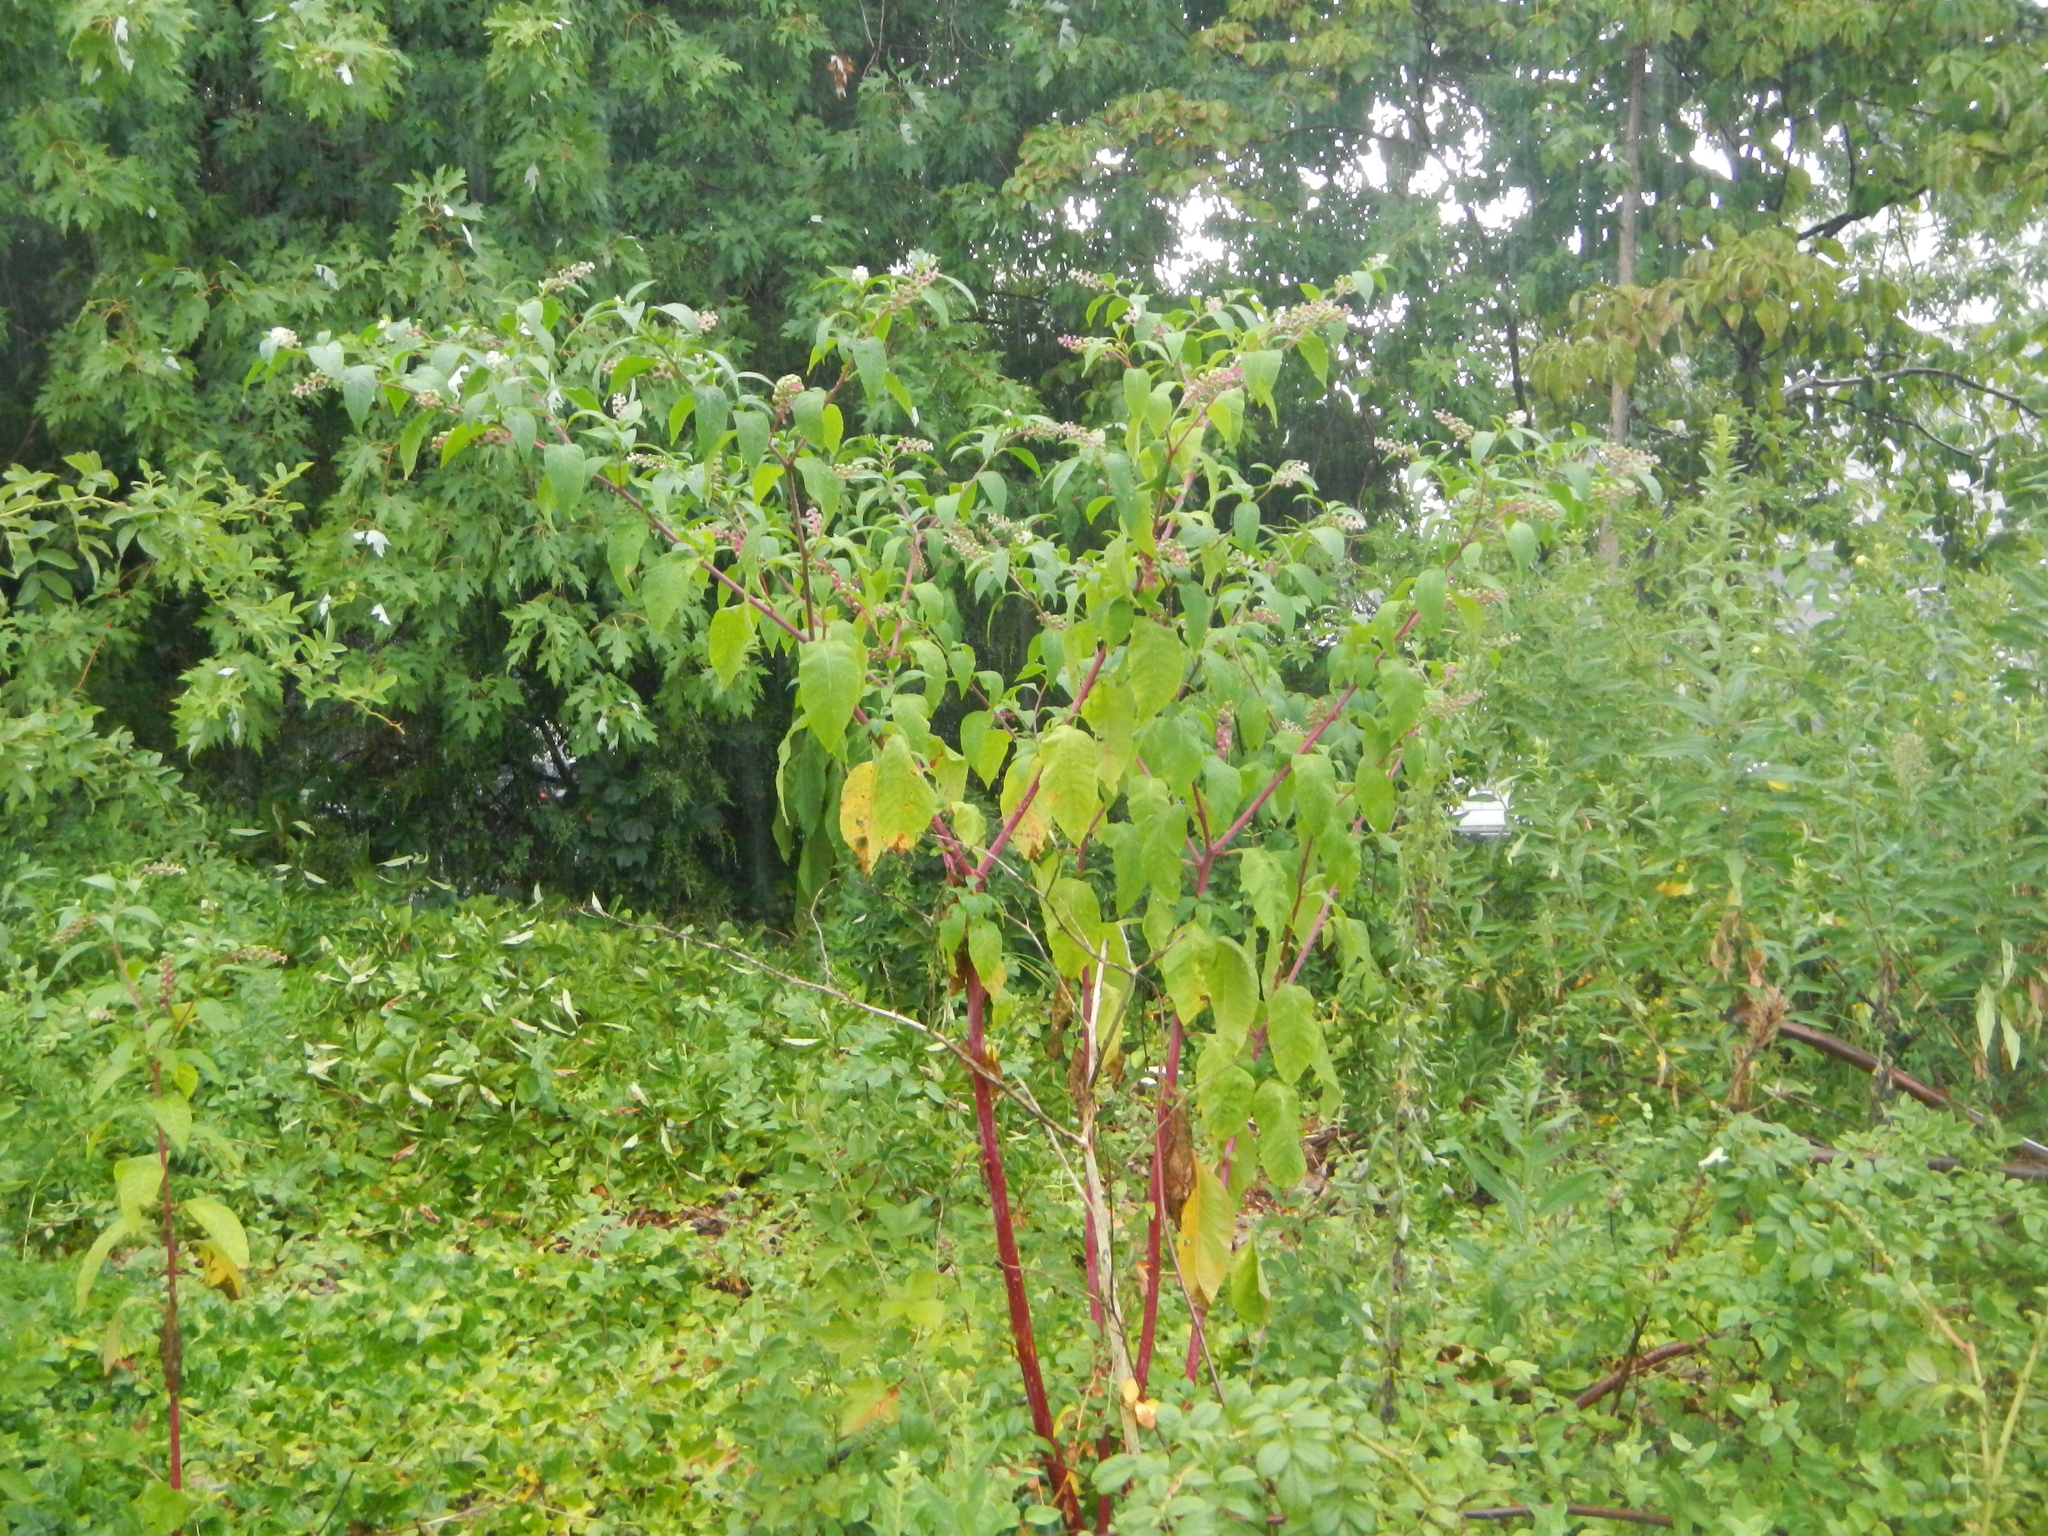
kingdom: Plantae
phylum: Tracheophyta
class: Magnoliopsida
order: Caryophyllales
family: Phytolaccaceae
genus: Phytolacca
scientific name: Phytolacca americana
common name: American pokeweed
